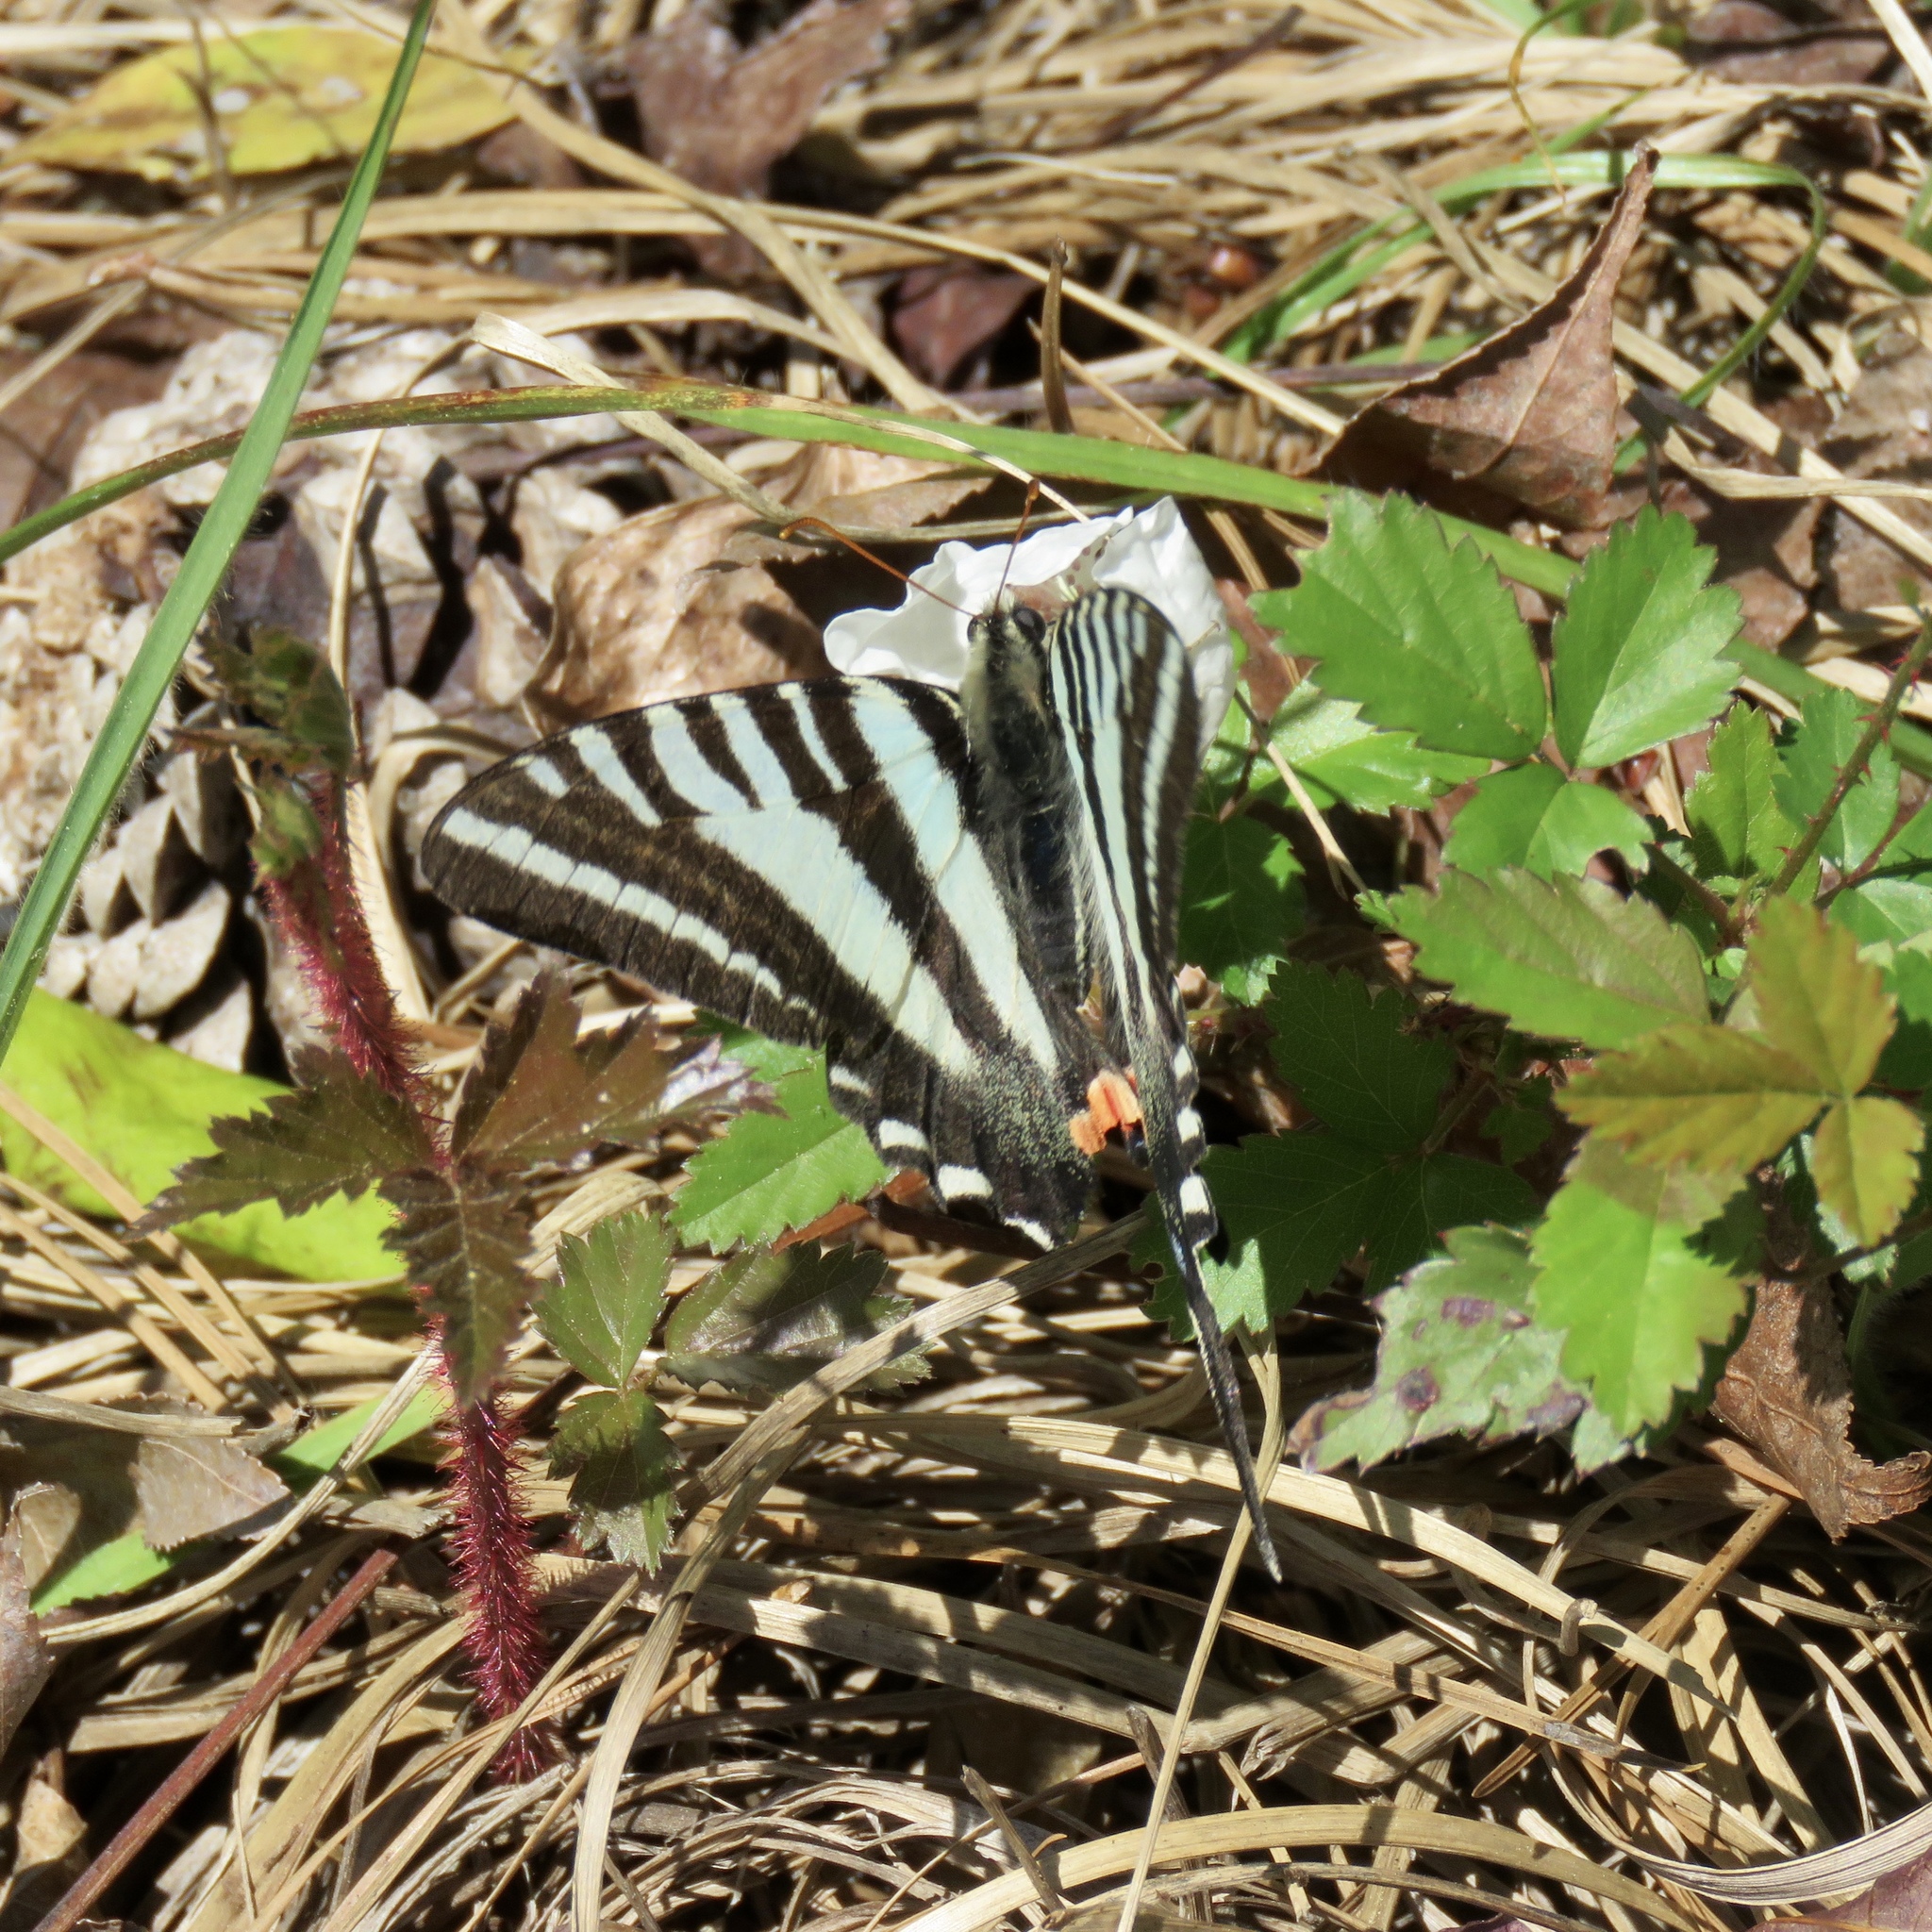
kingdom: Animalia
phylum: Arthropoda
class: Insecta
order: Lepidoptera
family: Papilionidae
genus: Protographium
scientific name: Protographium marcellus
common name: Zebra swallowtail
